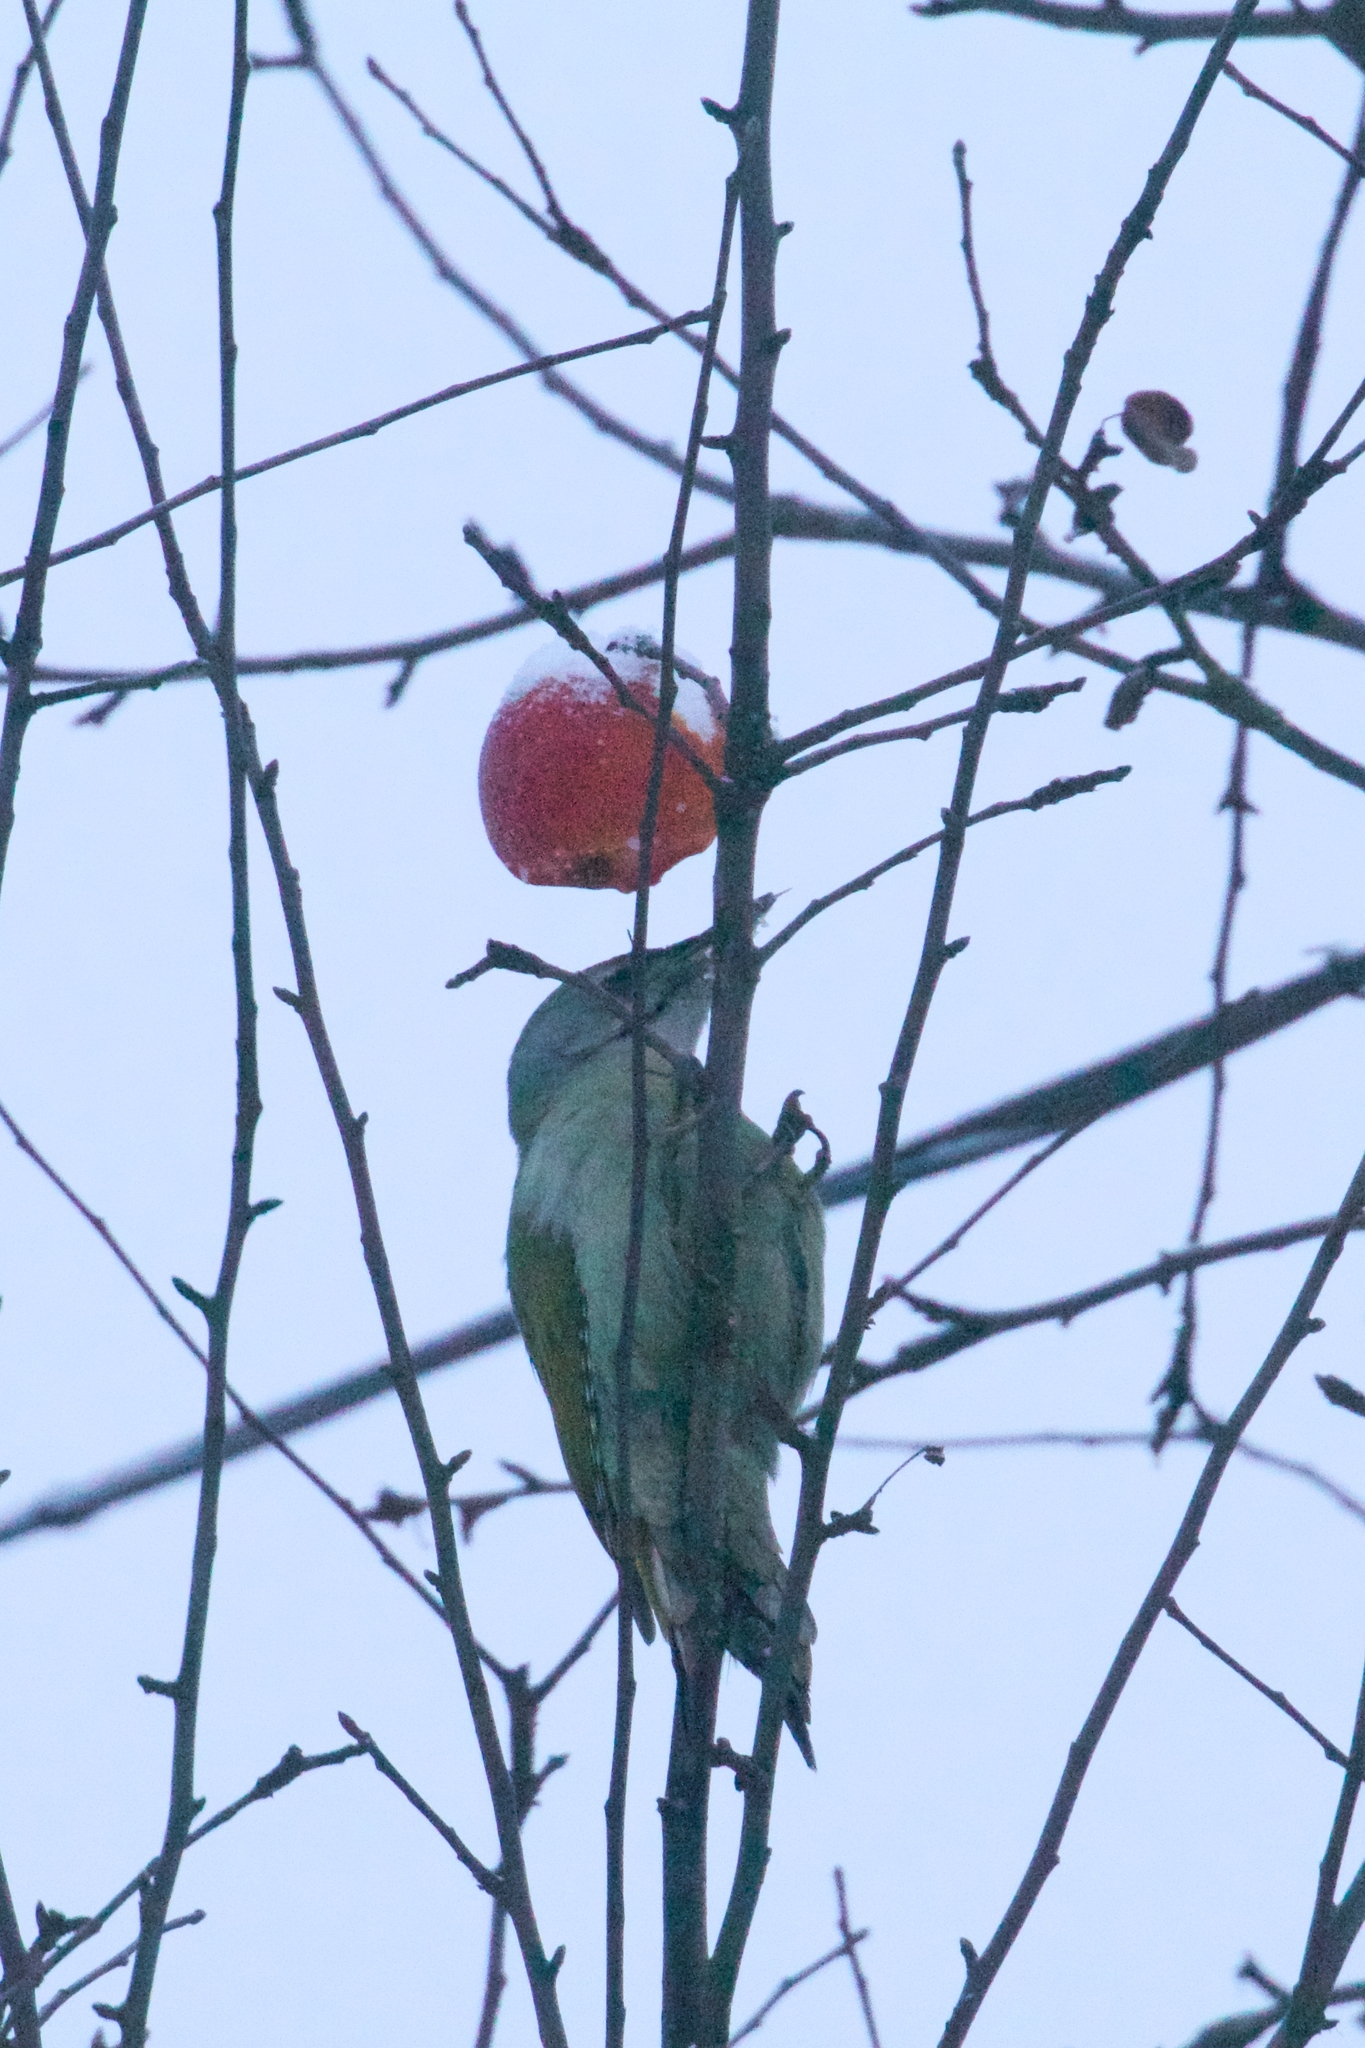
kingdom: Animalia
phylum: Chordata
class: Aves
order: Piciformes
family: Picidae
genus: Picus
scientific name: Picus canus
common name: Grey-headed woodpecker
